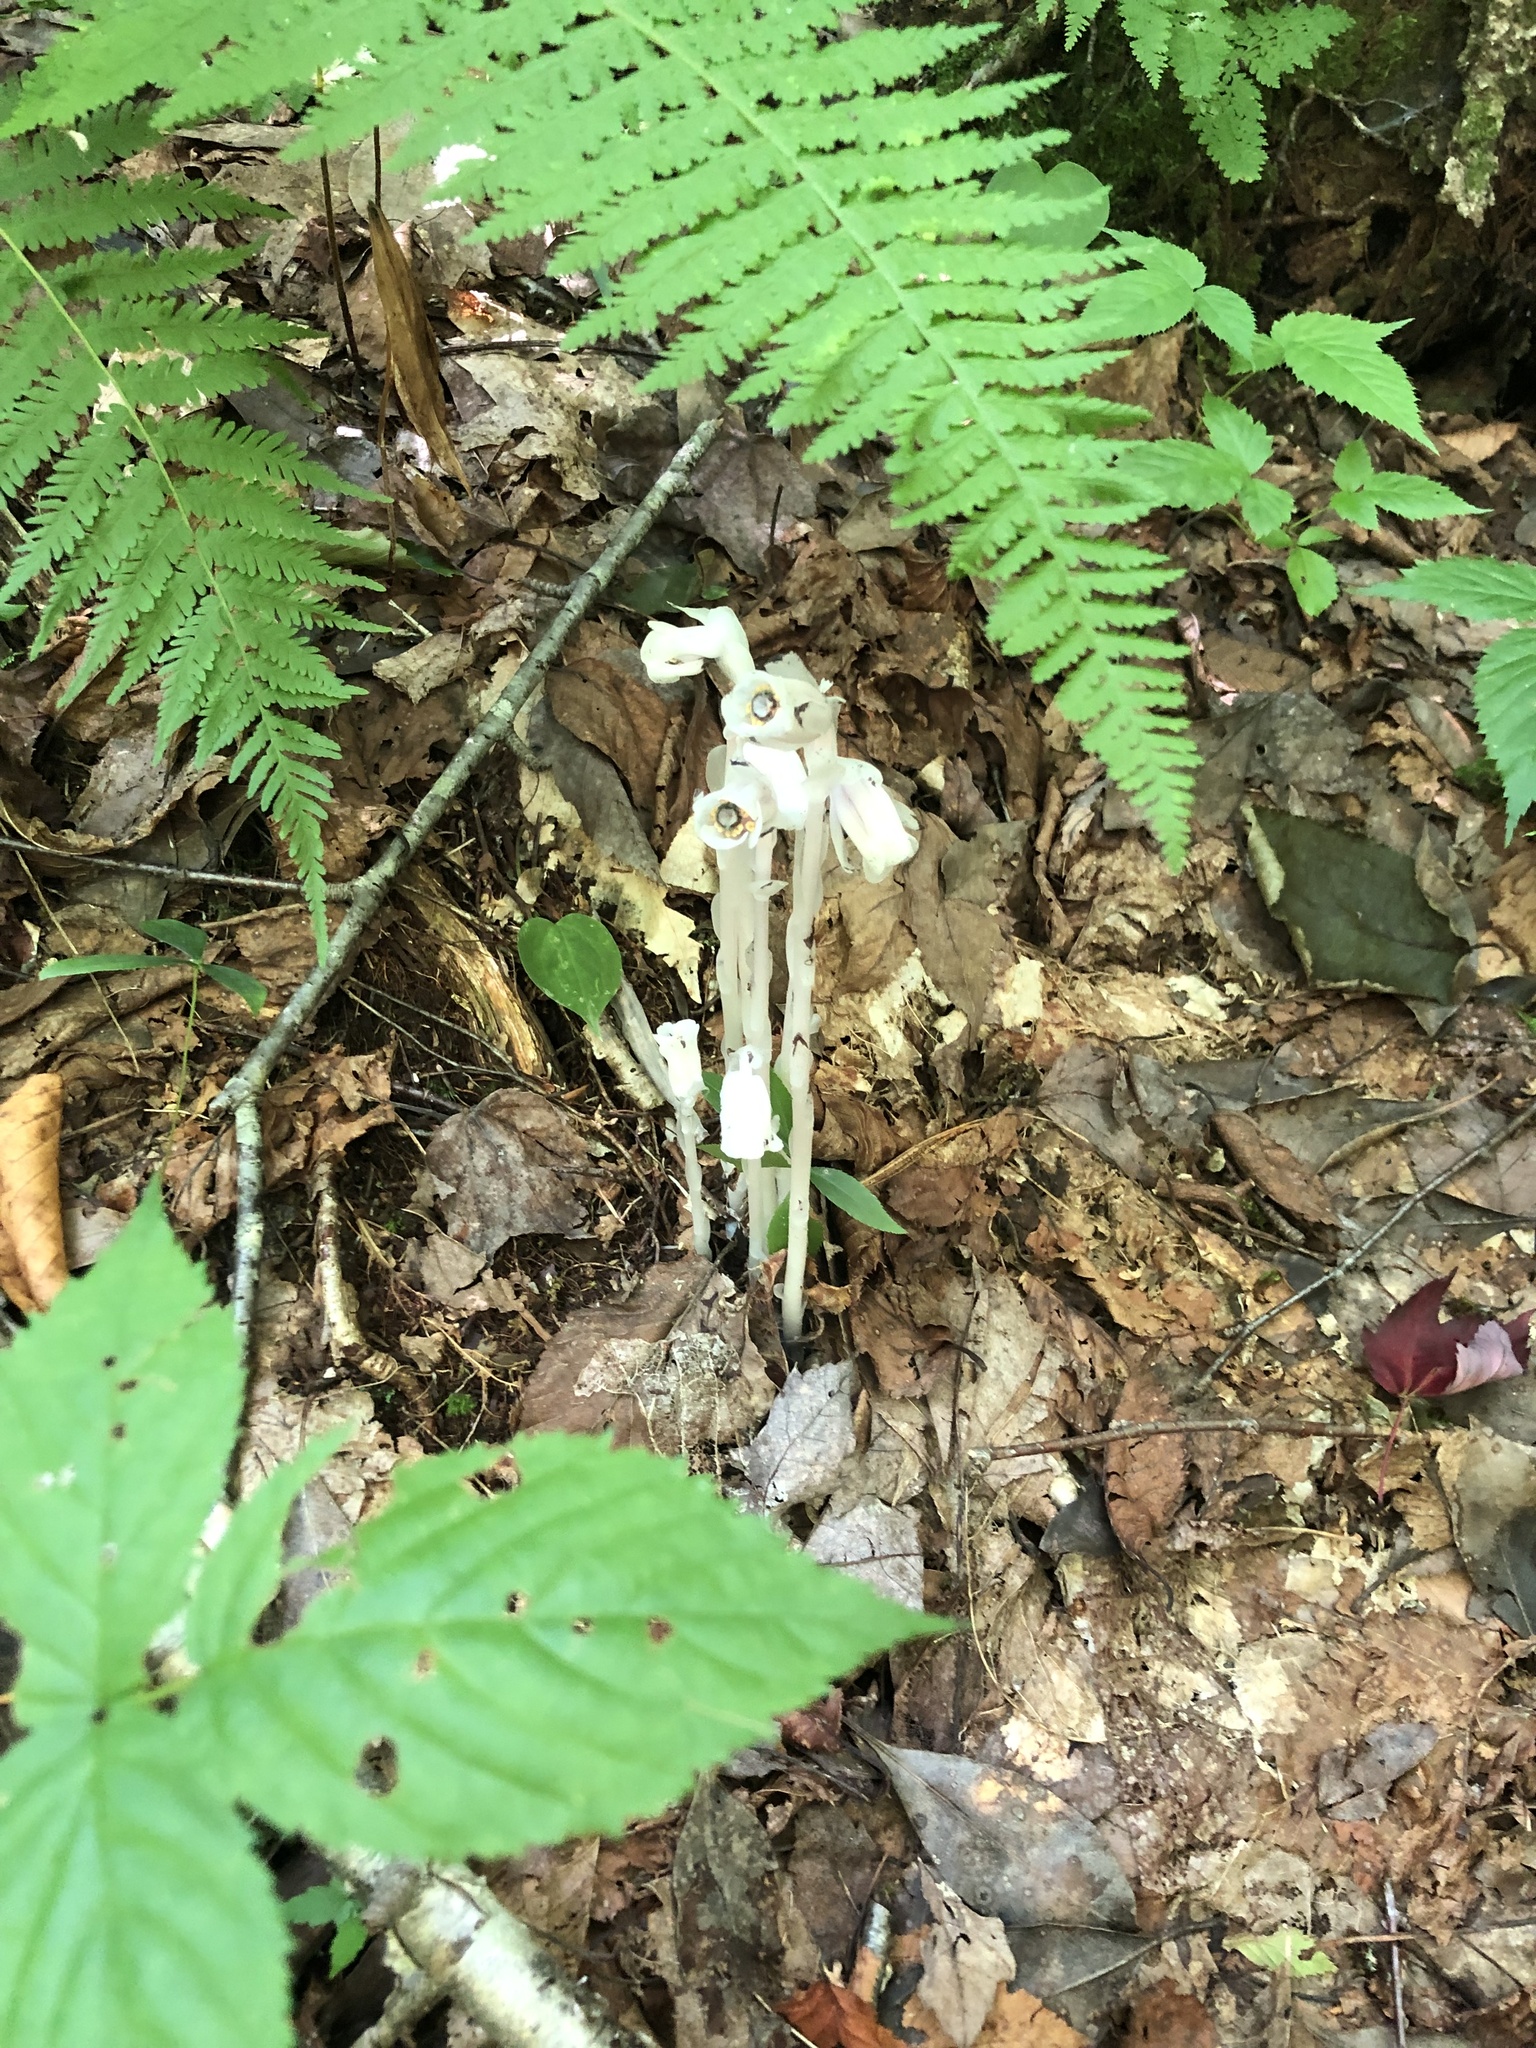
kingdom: Plantae
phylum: Tracheophyta
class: Magnoliopsida
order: Ericales
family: Ericaceae
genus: Monotropa
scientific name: Monotropa uniflora
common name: Convulsion root
